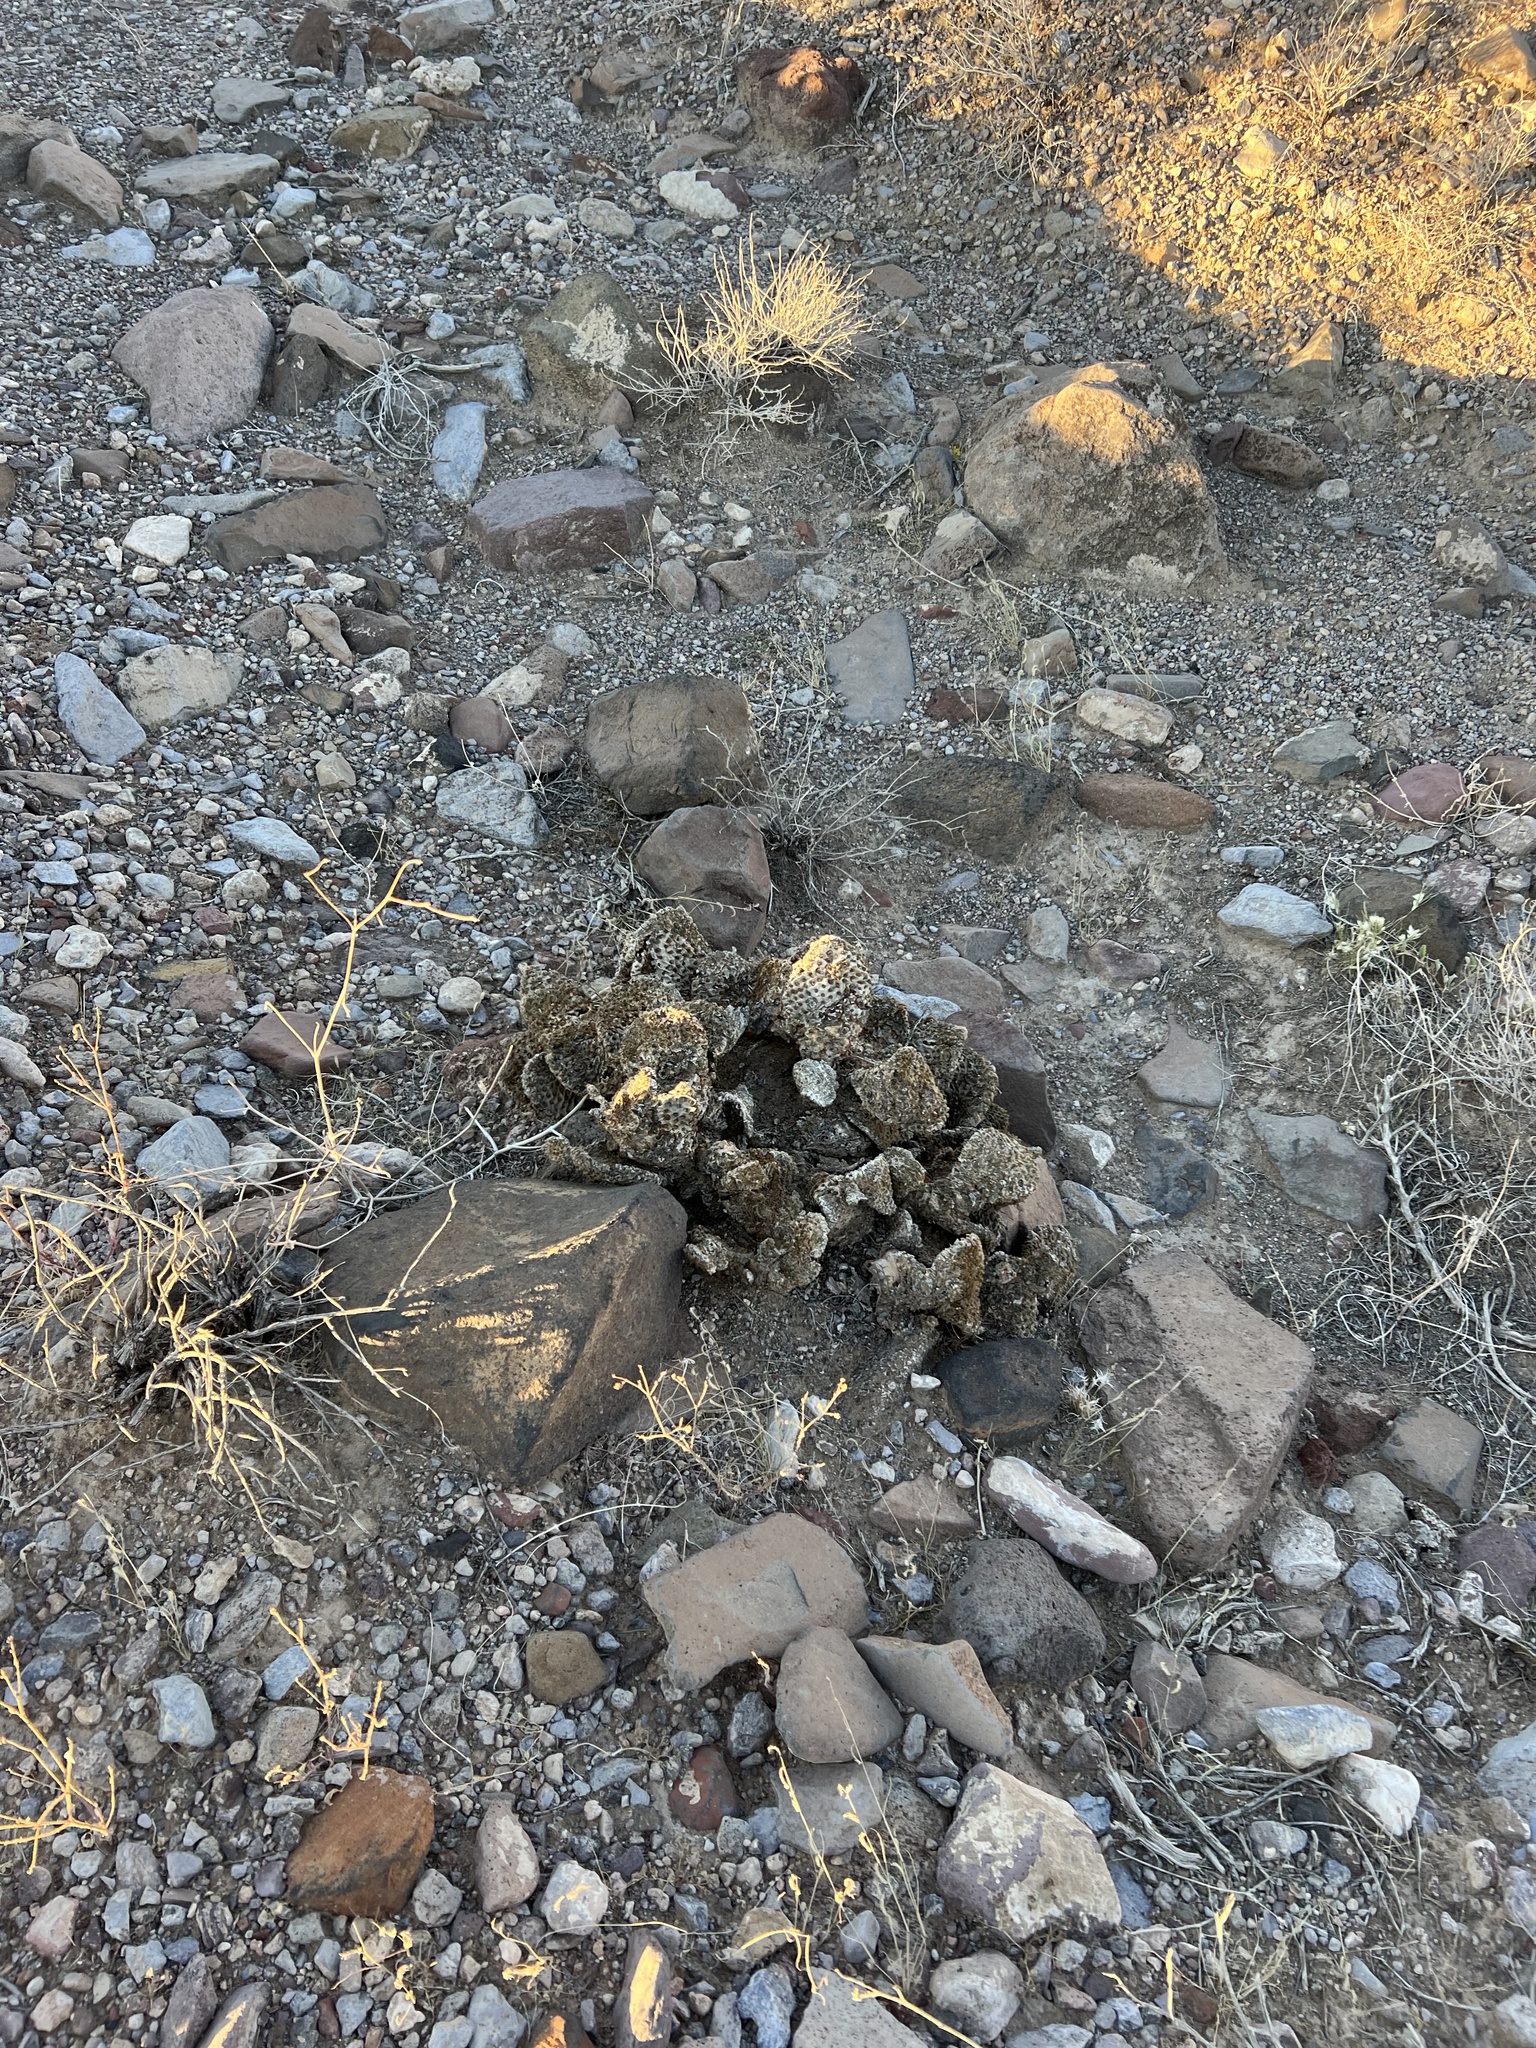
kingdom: Plantae
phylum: Tracheophyta
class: Magnoliopsida
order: Caryophyllales
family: Cactaceae
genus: Opuntia
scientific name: Opuntia basilaris
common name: Beavertail prickly-pear
